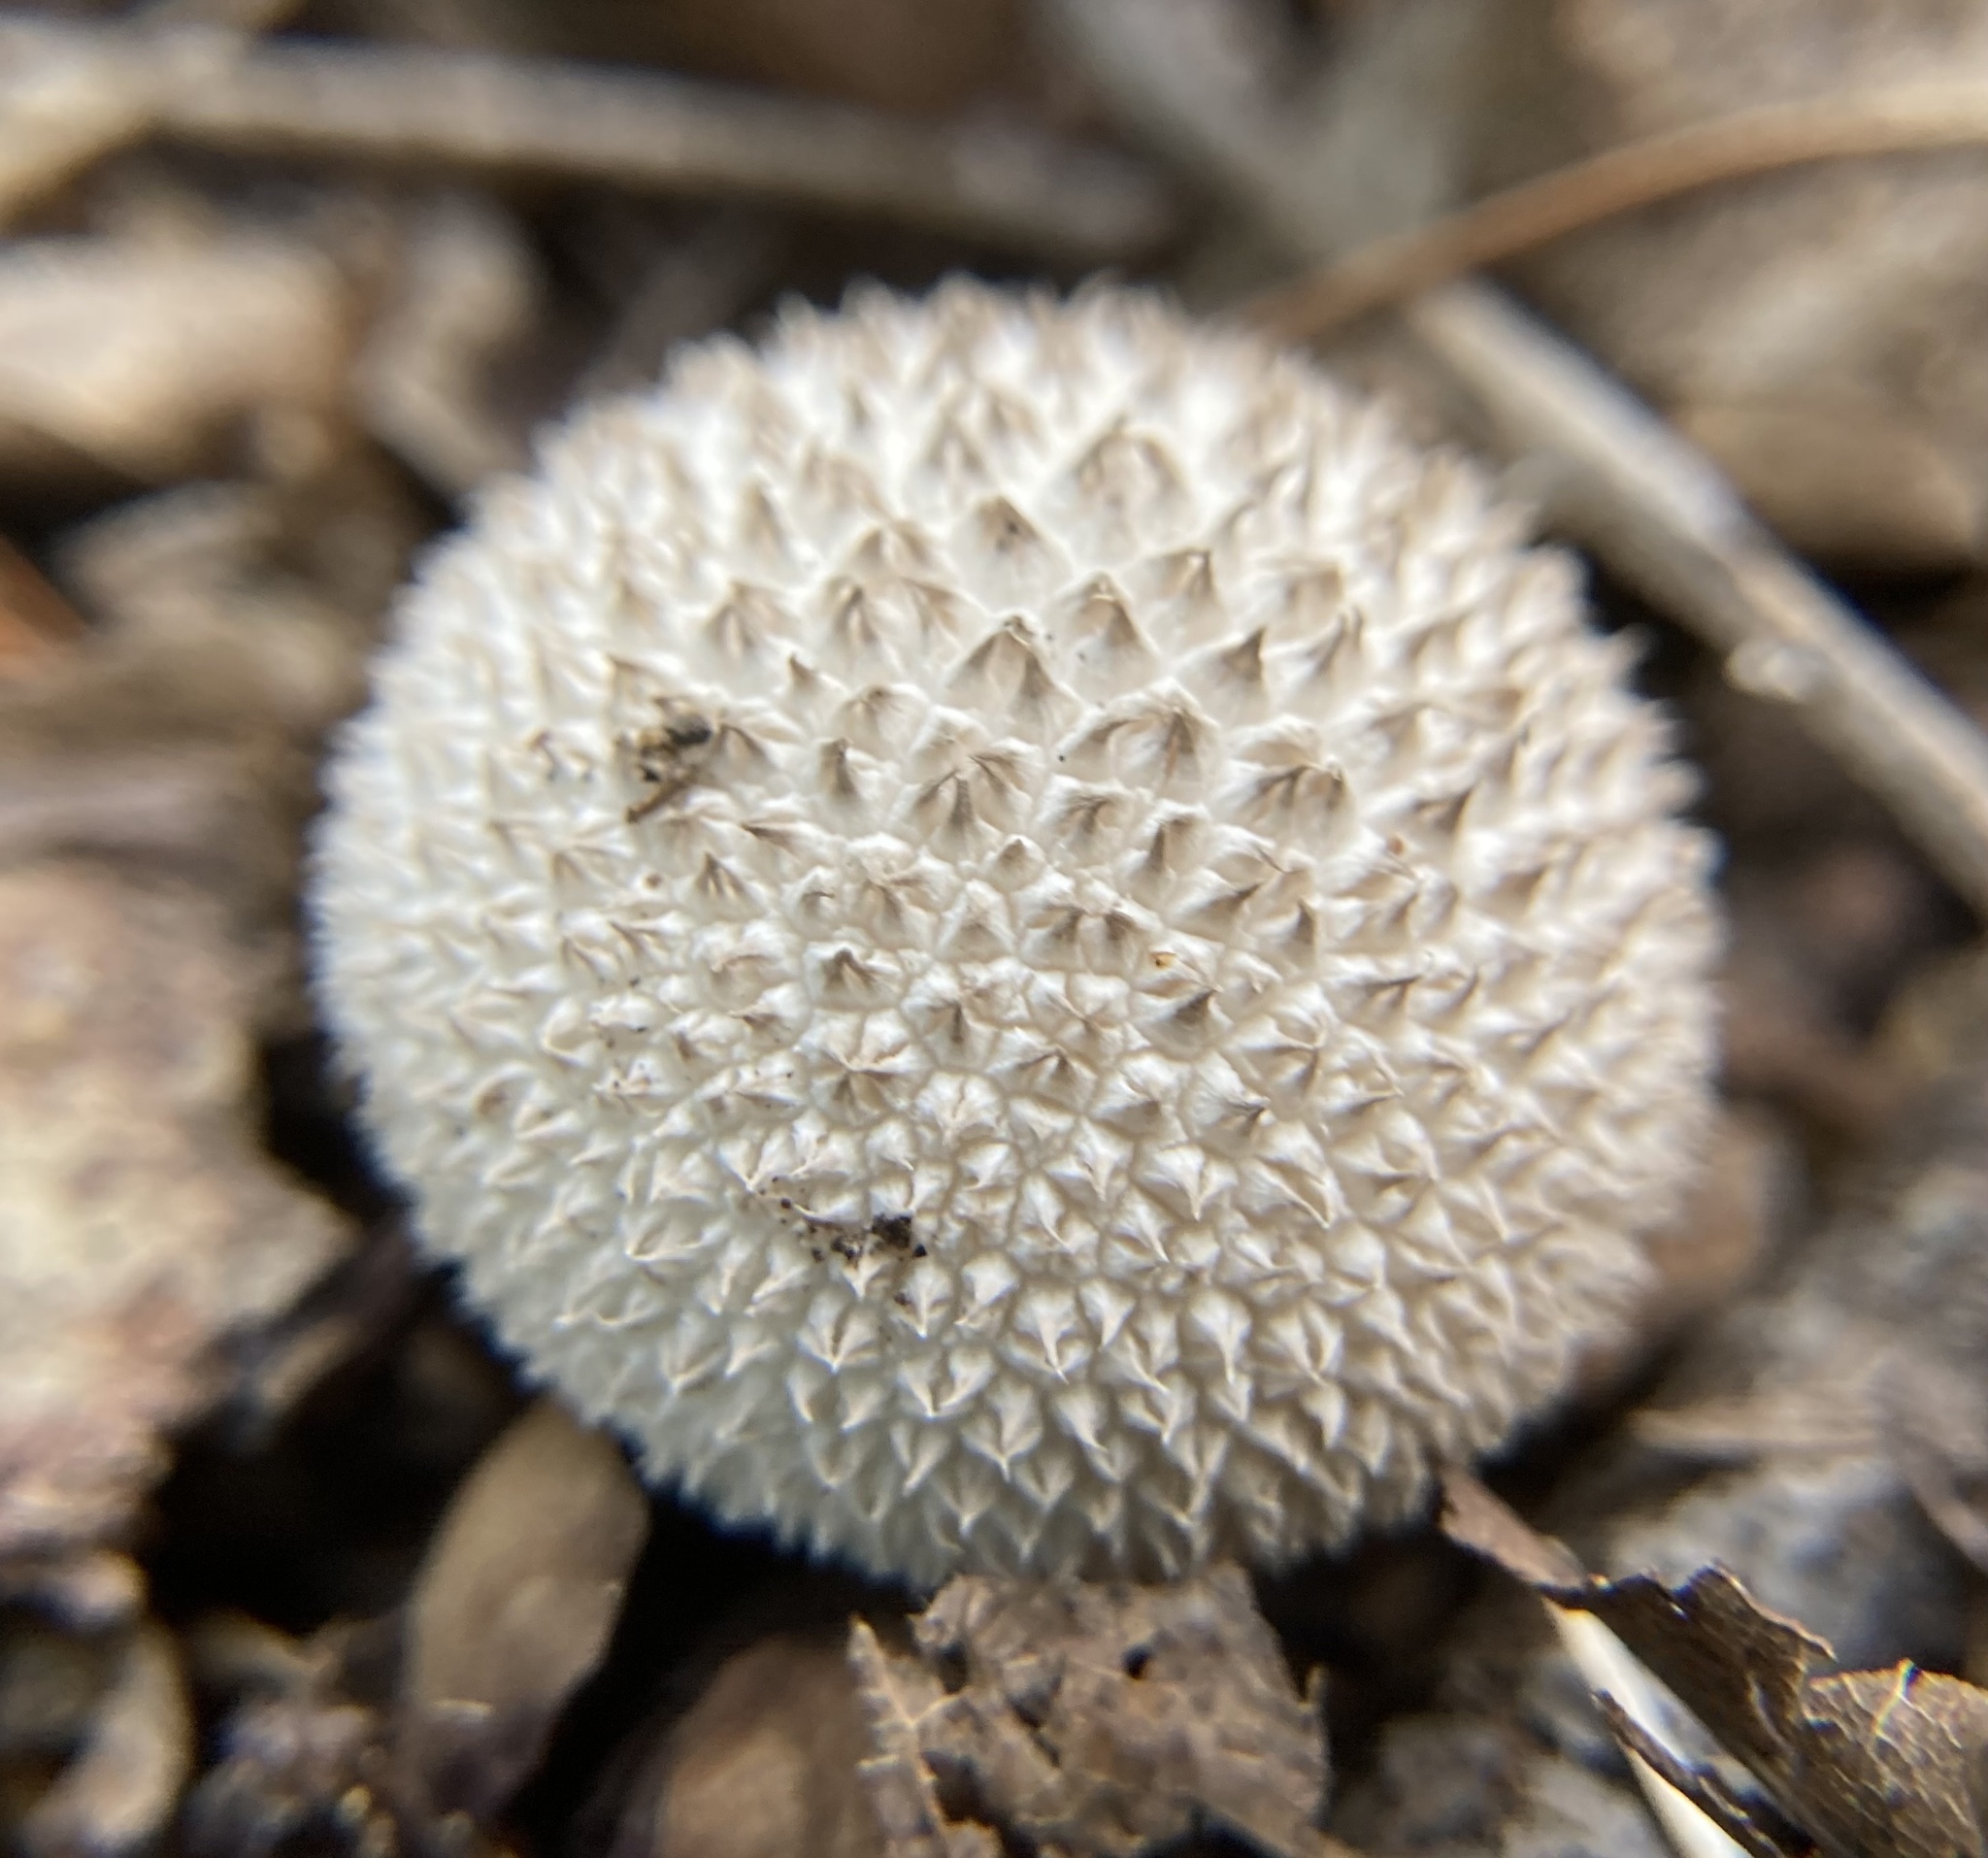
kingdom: Fungi
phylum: Basidiomycota
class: Agaricomycetes
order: Agaricales
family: Agaricaceae
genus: Lycoperdon
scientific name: Lycoperdon marginatum
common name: Peeling puffball
